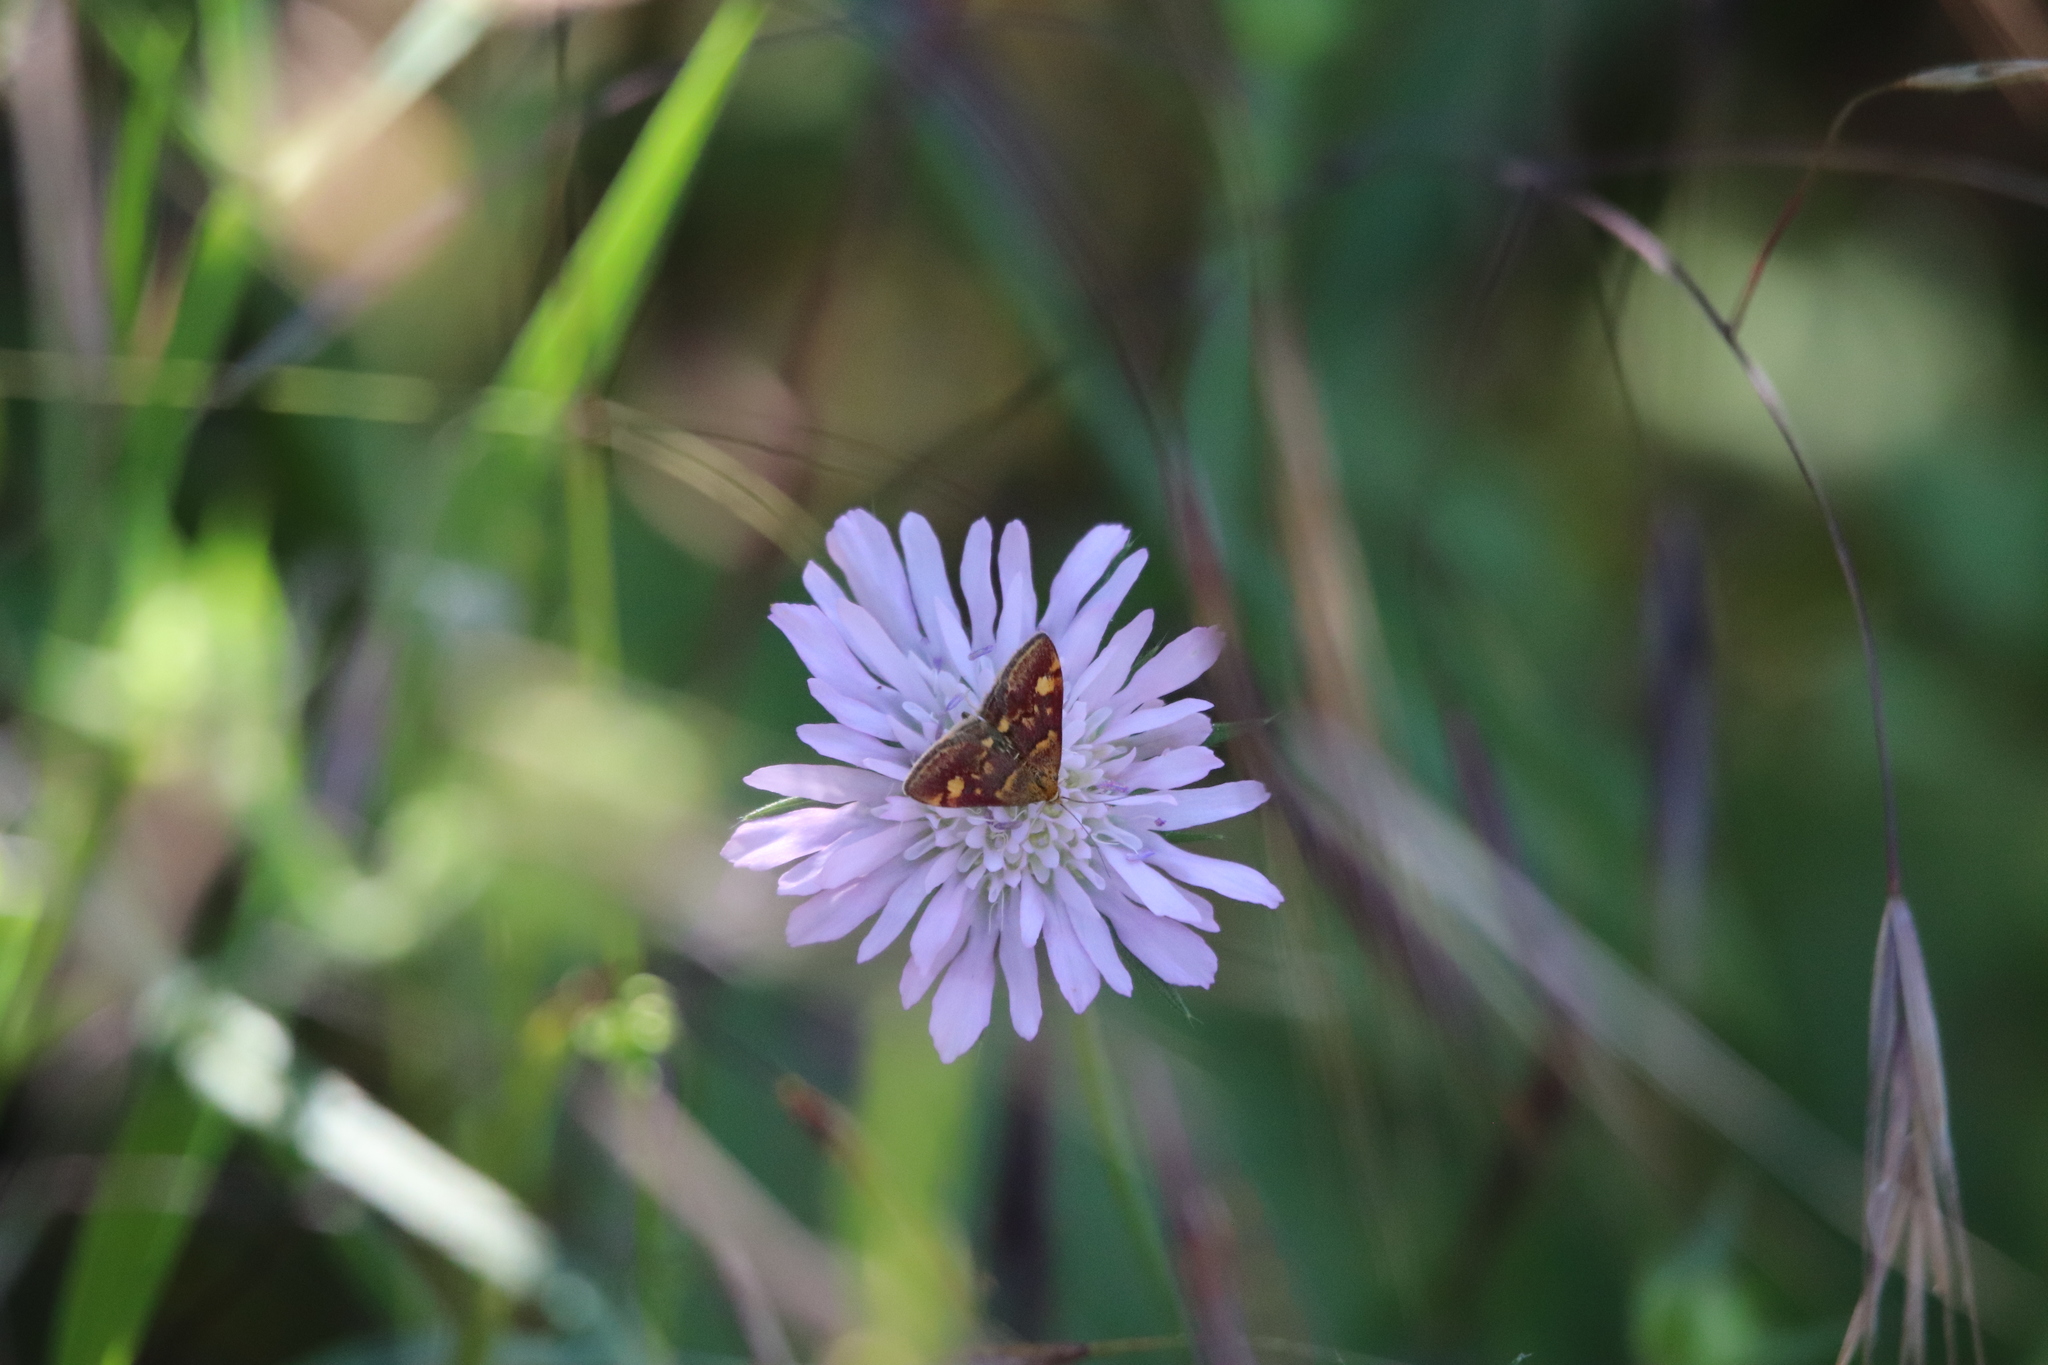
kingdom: Animalia
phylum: Arthropoda
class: Insecta
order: Lepidoptera
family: Crambidae
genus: Pyrausta
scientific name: Pyrausta aurata
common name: Small purple & gold
